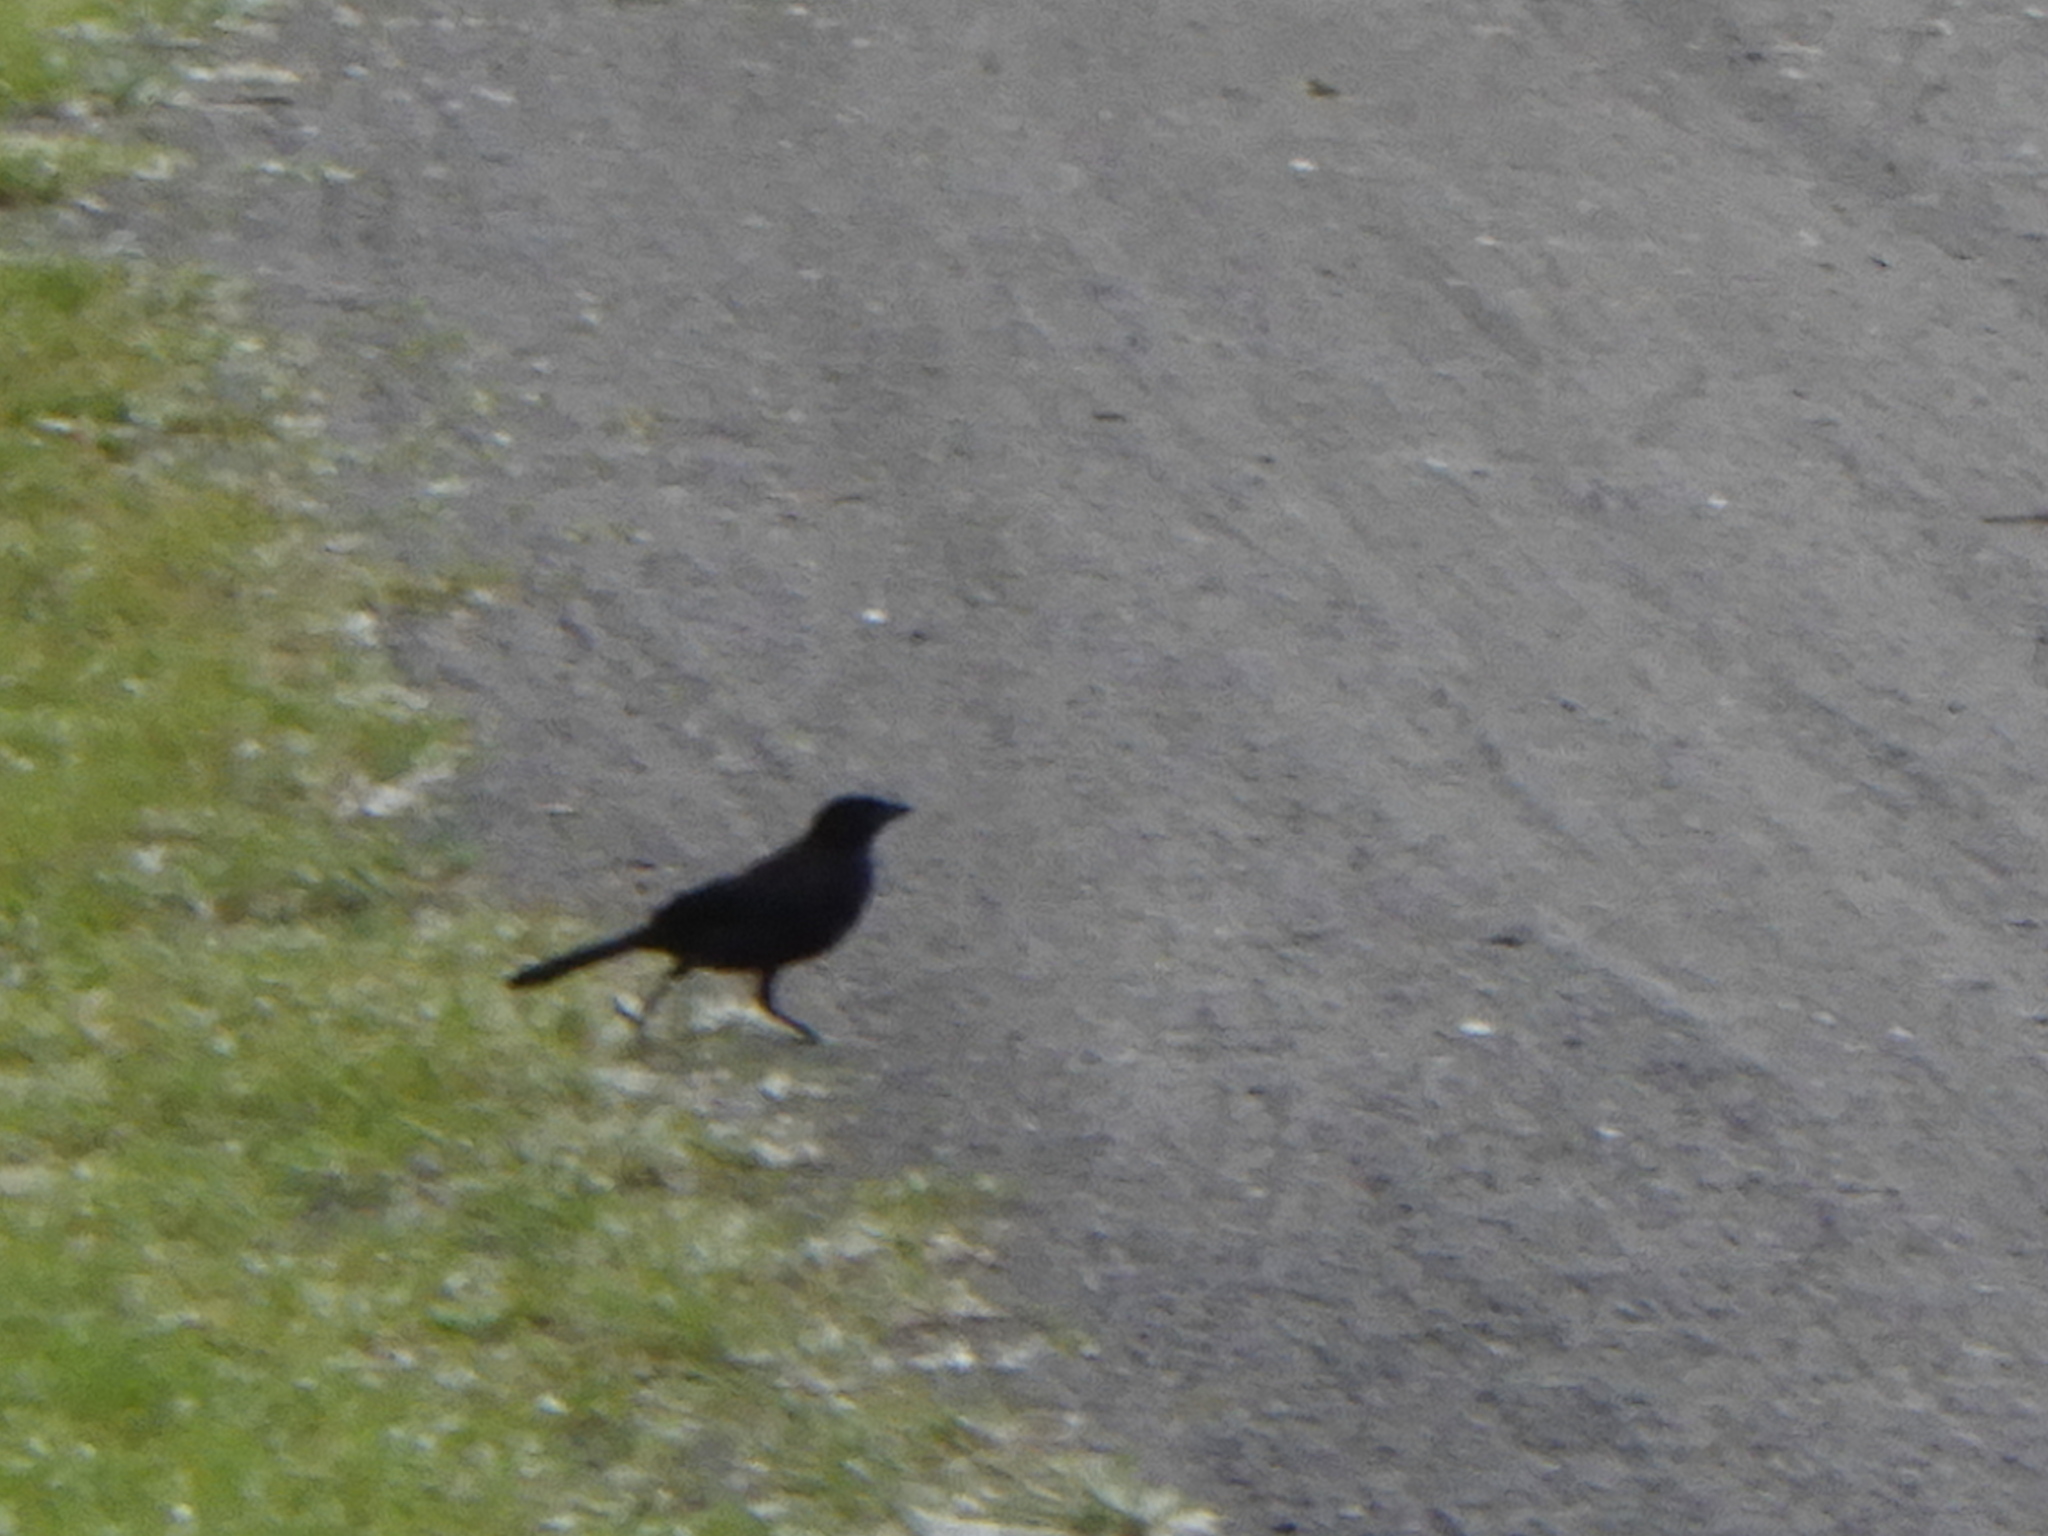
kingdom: Animalia
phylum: Chordata
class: Aves
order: Passeriformes
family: Icteridae
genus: Quiscalus
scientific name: Quiscalus quiscula
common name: Common grackle
